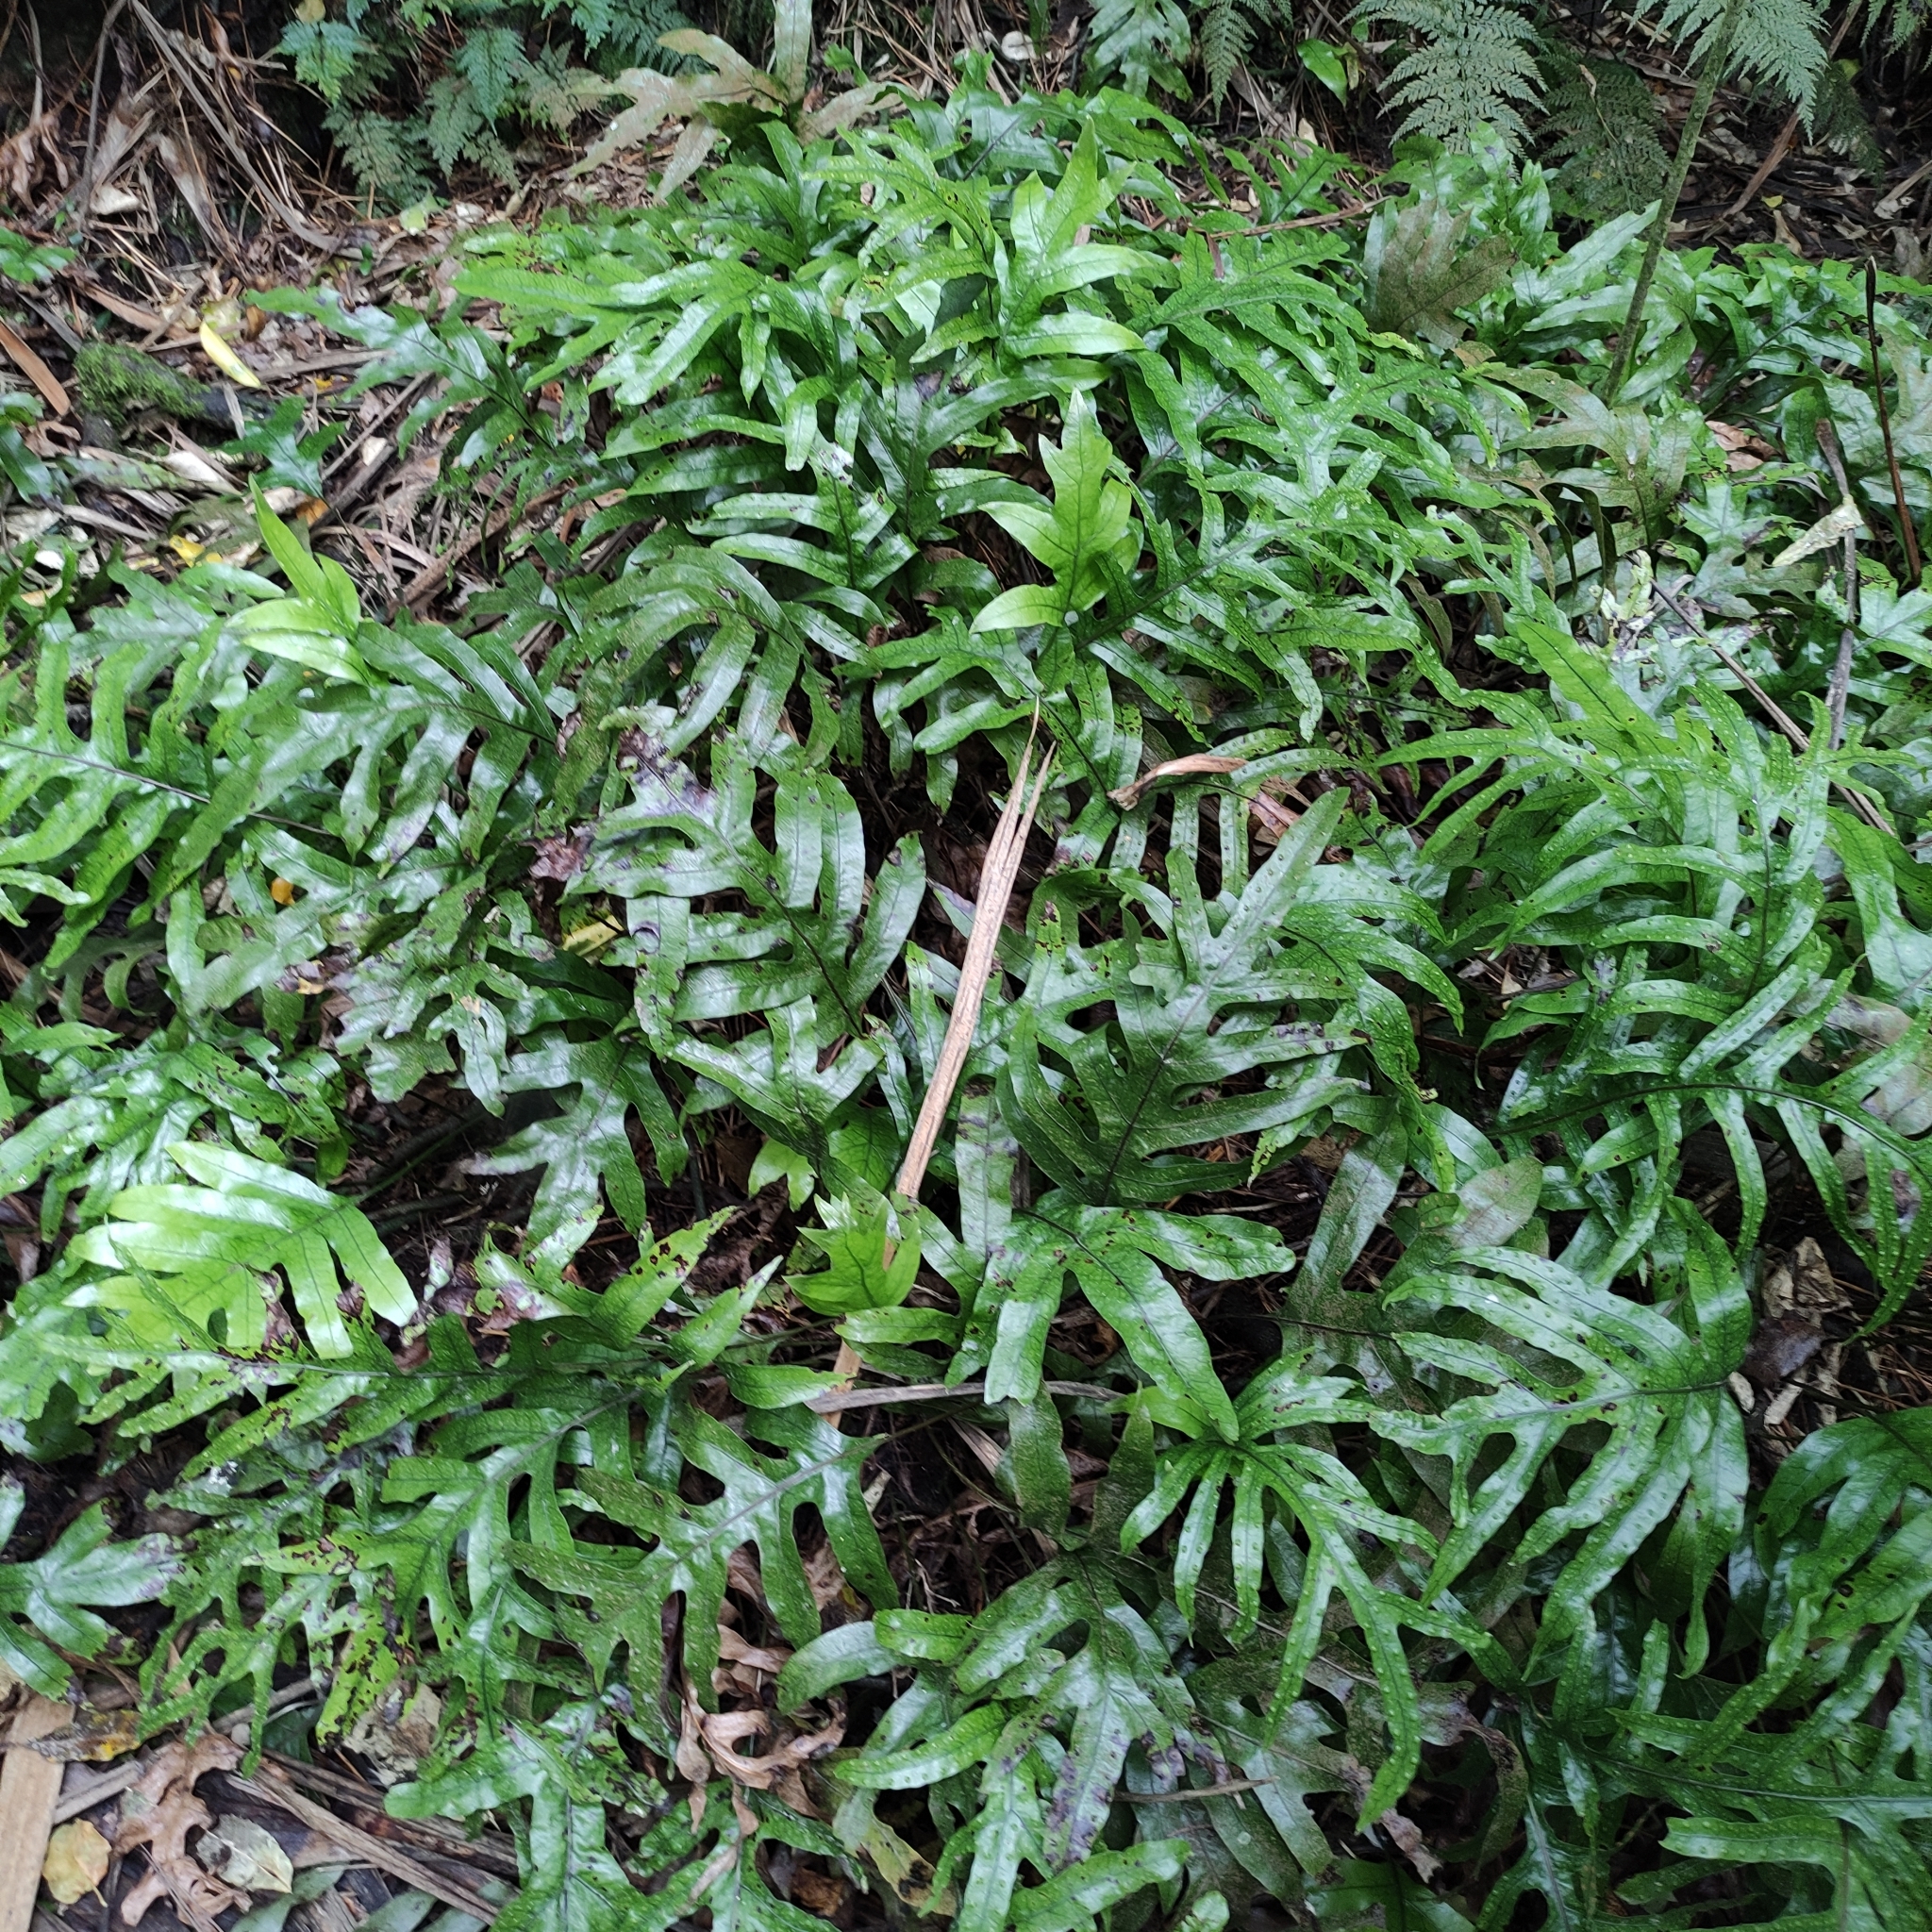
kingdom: Plantae
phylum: Tracheophyta
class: Polypodiopsida
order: Polypodiales
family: Polypodiaceae
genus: Lecanopteris
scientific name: Lecanopteris pustulata
